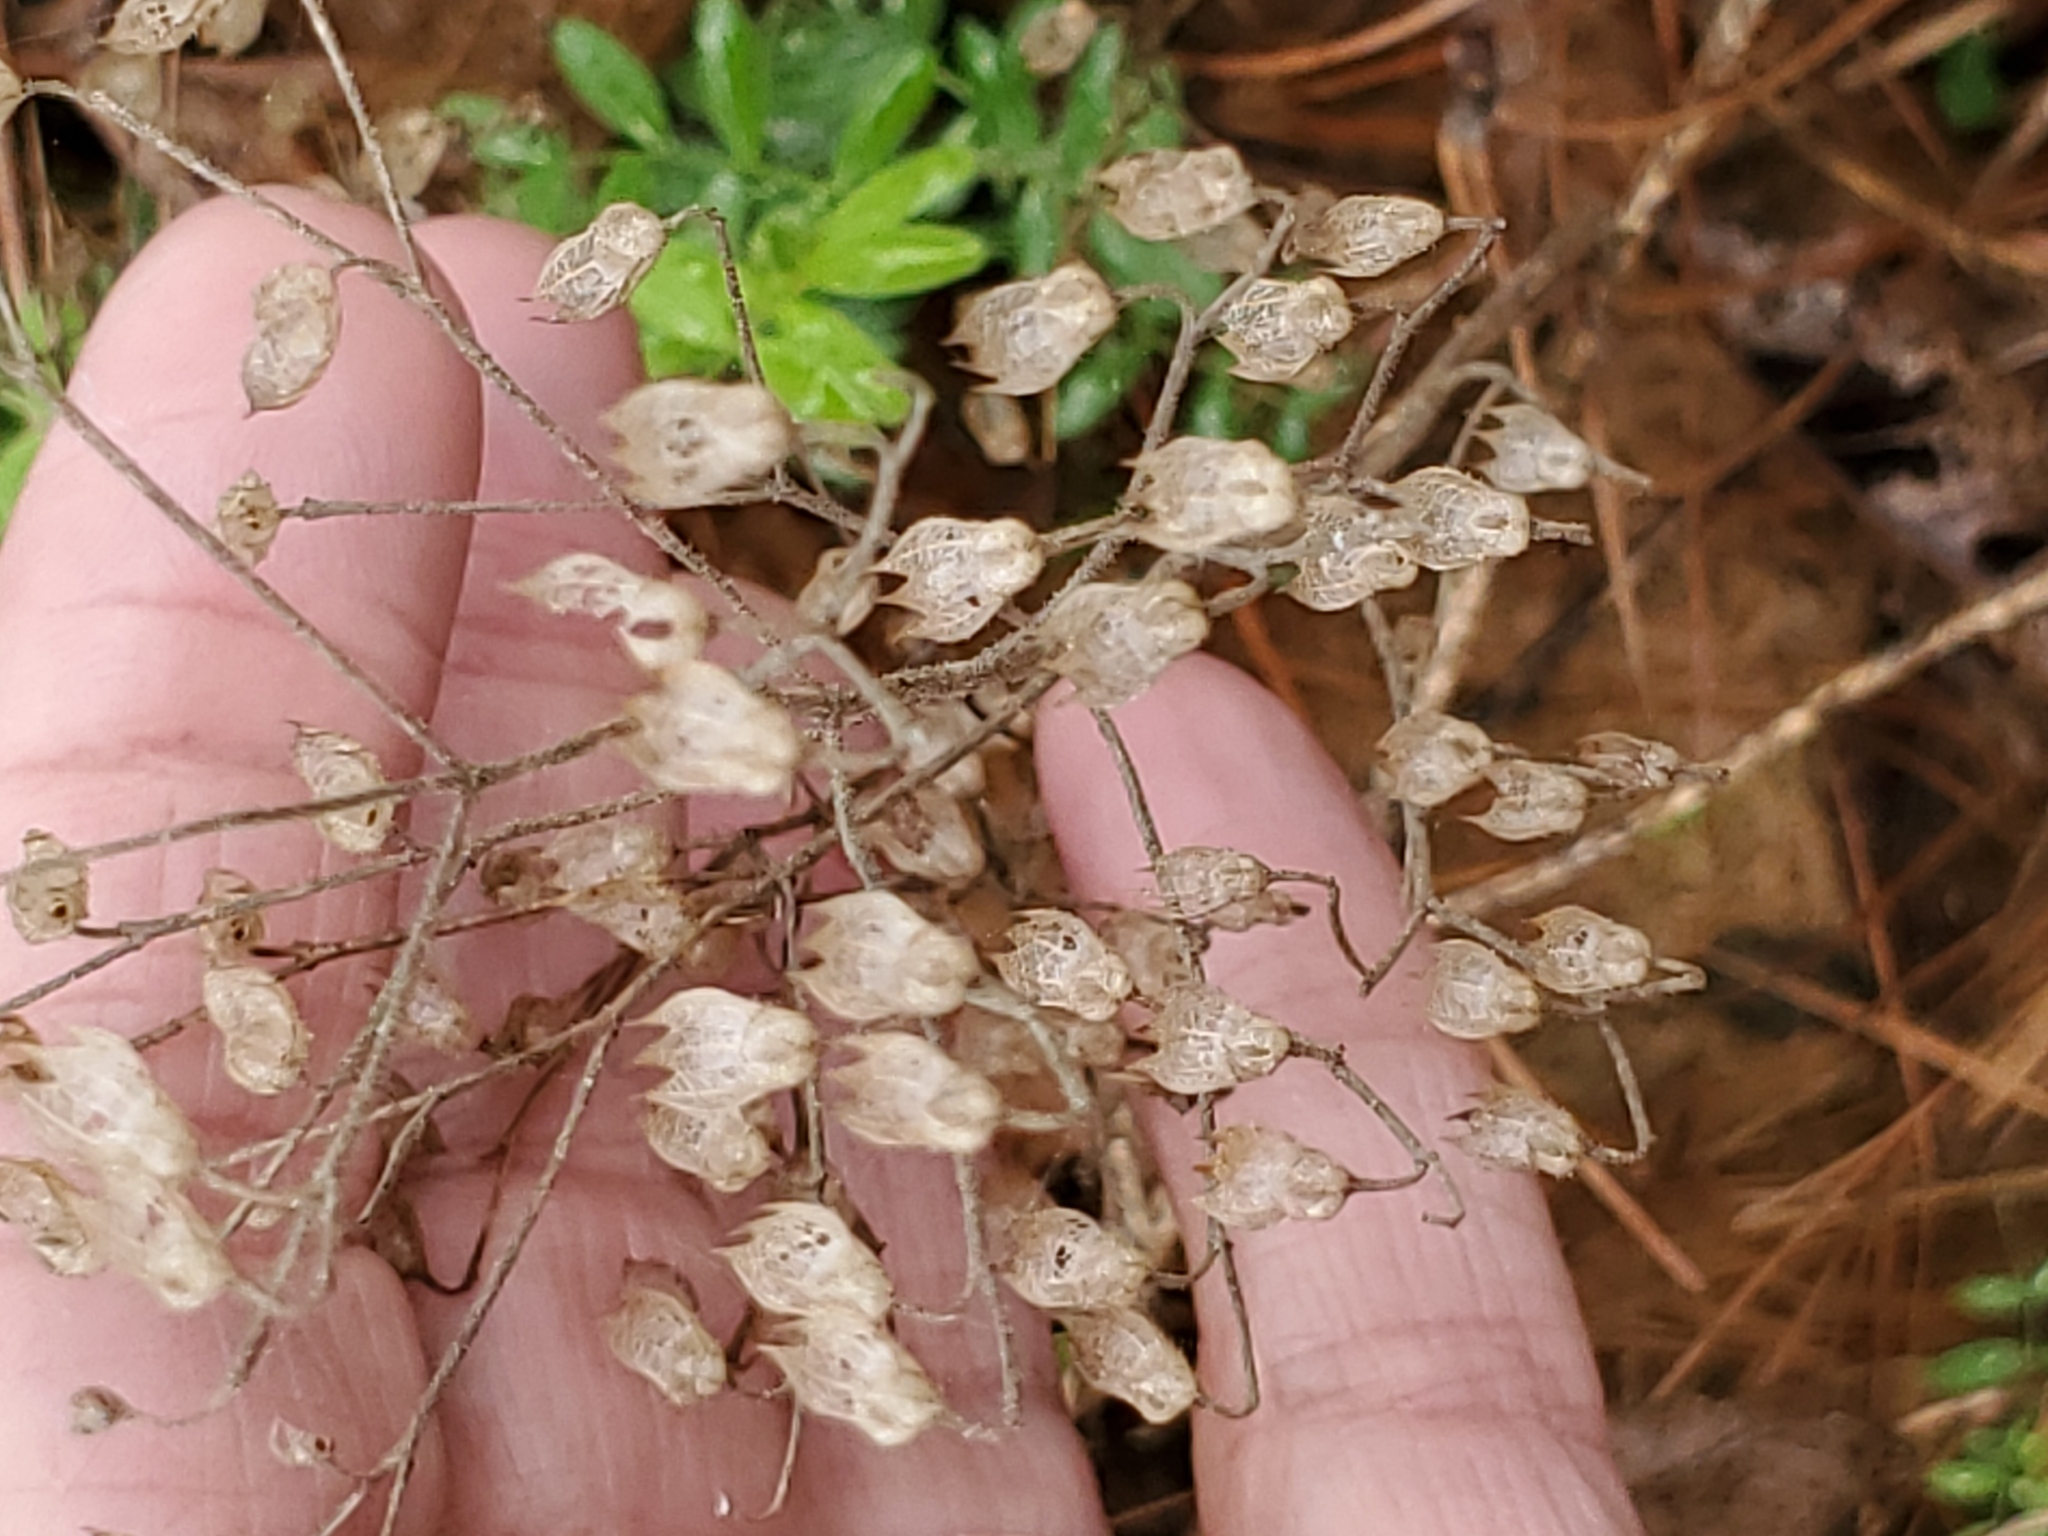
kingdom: Plantae
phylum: Tracheophyta
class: Magnoliopsida
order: Lamiales
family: Lamiaceae
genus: Trichostema
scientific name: Trichostema dichotomum
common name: Bastard pennyroyal
